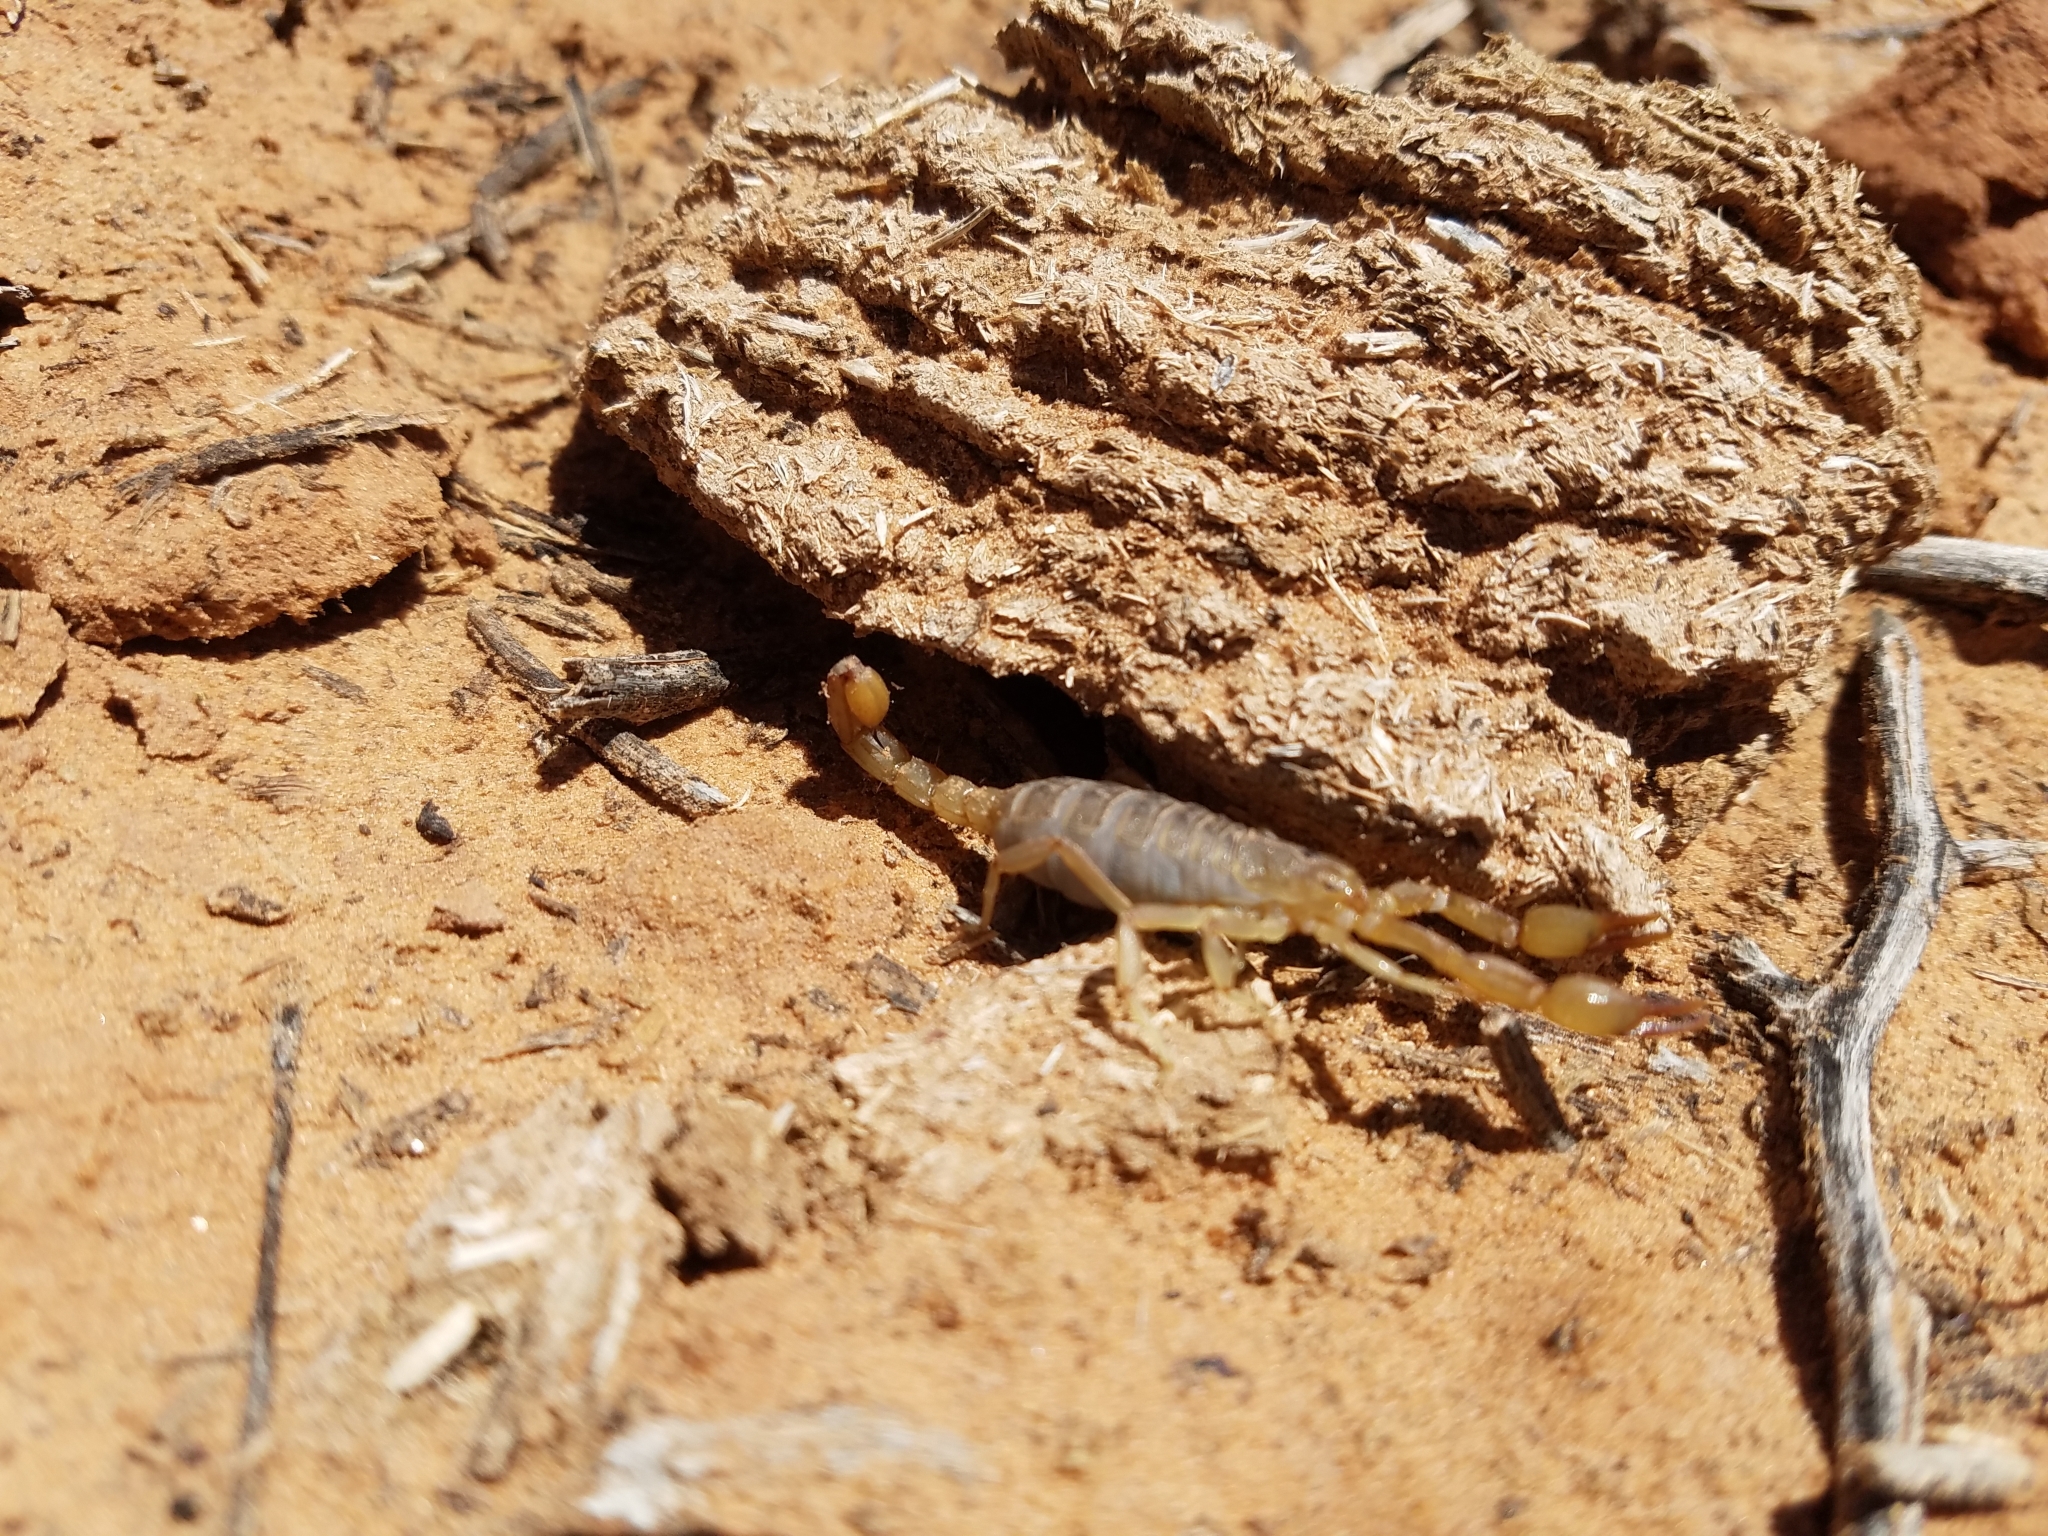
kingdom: Animalia
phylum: Arthropoda
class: Arachnida
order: Scorpiones
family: Vaejovidae
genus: Chihuahuanus
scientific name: Chihuahuanus coahuilae
